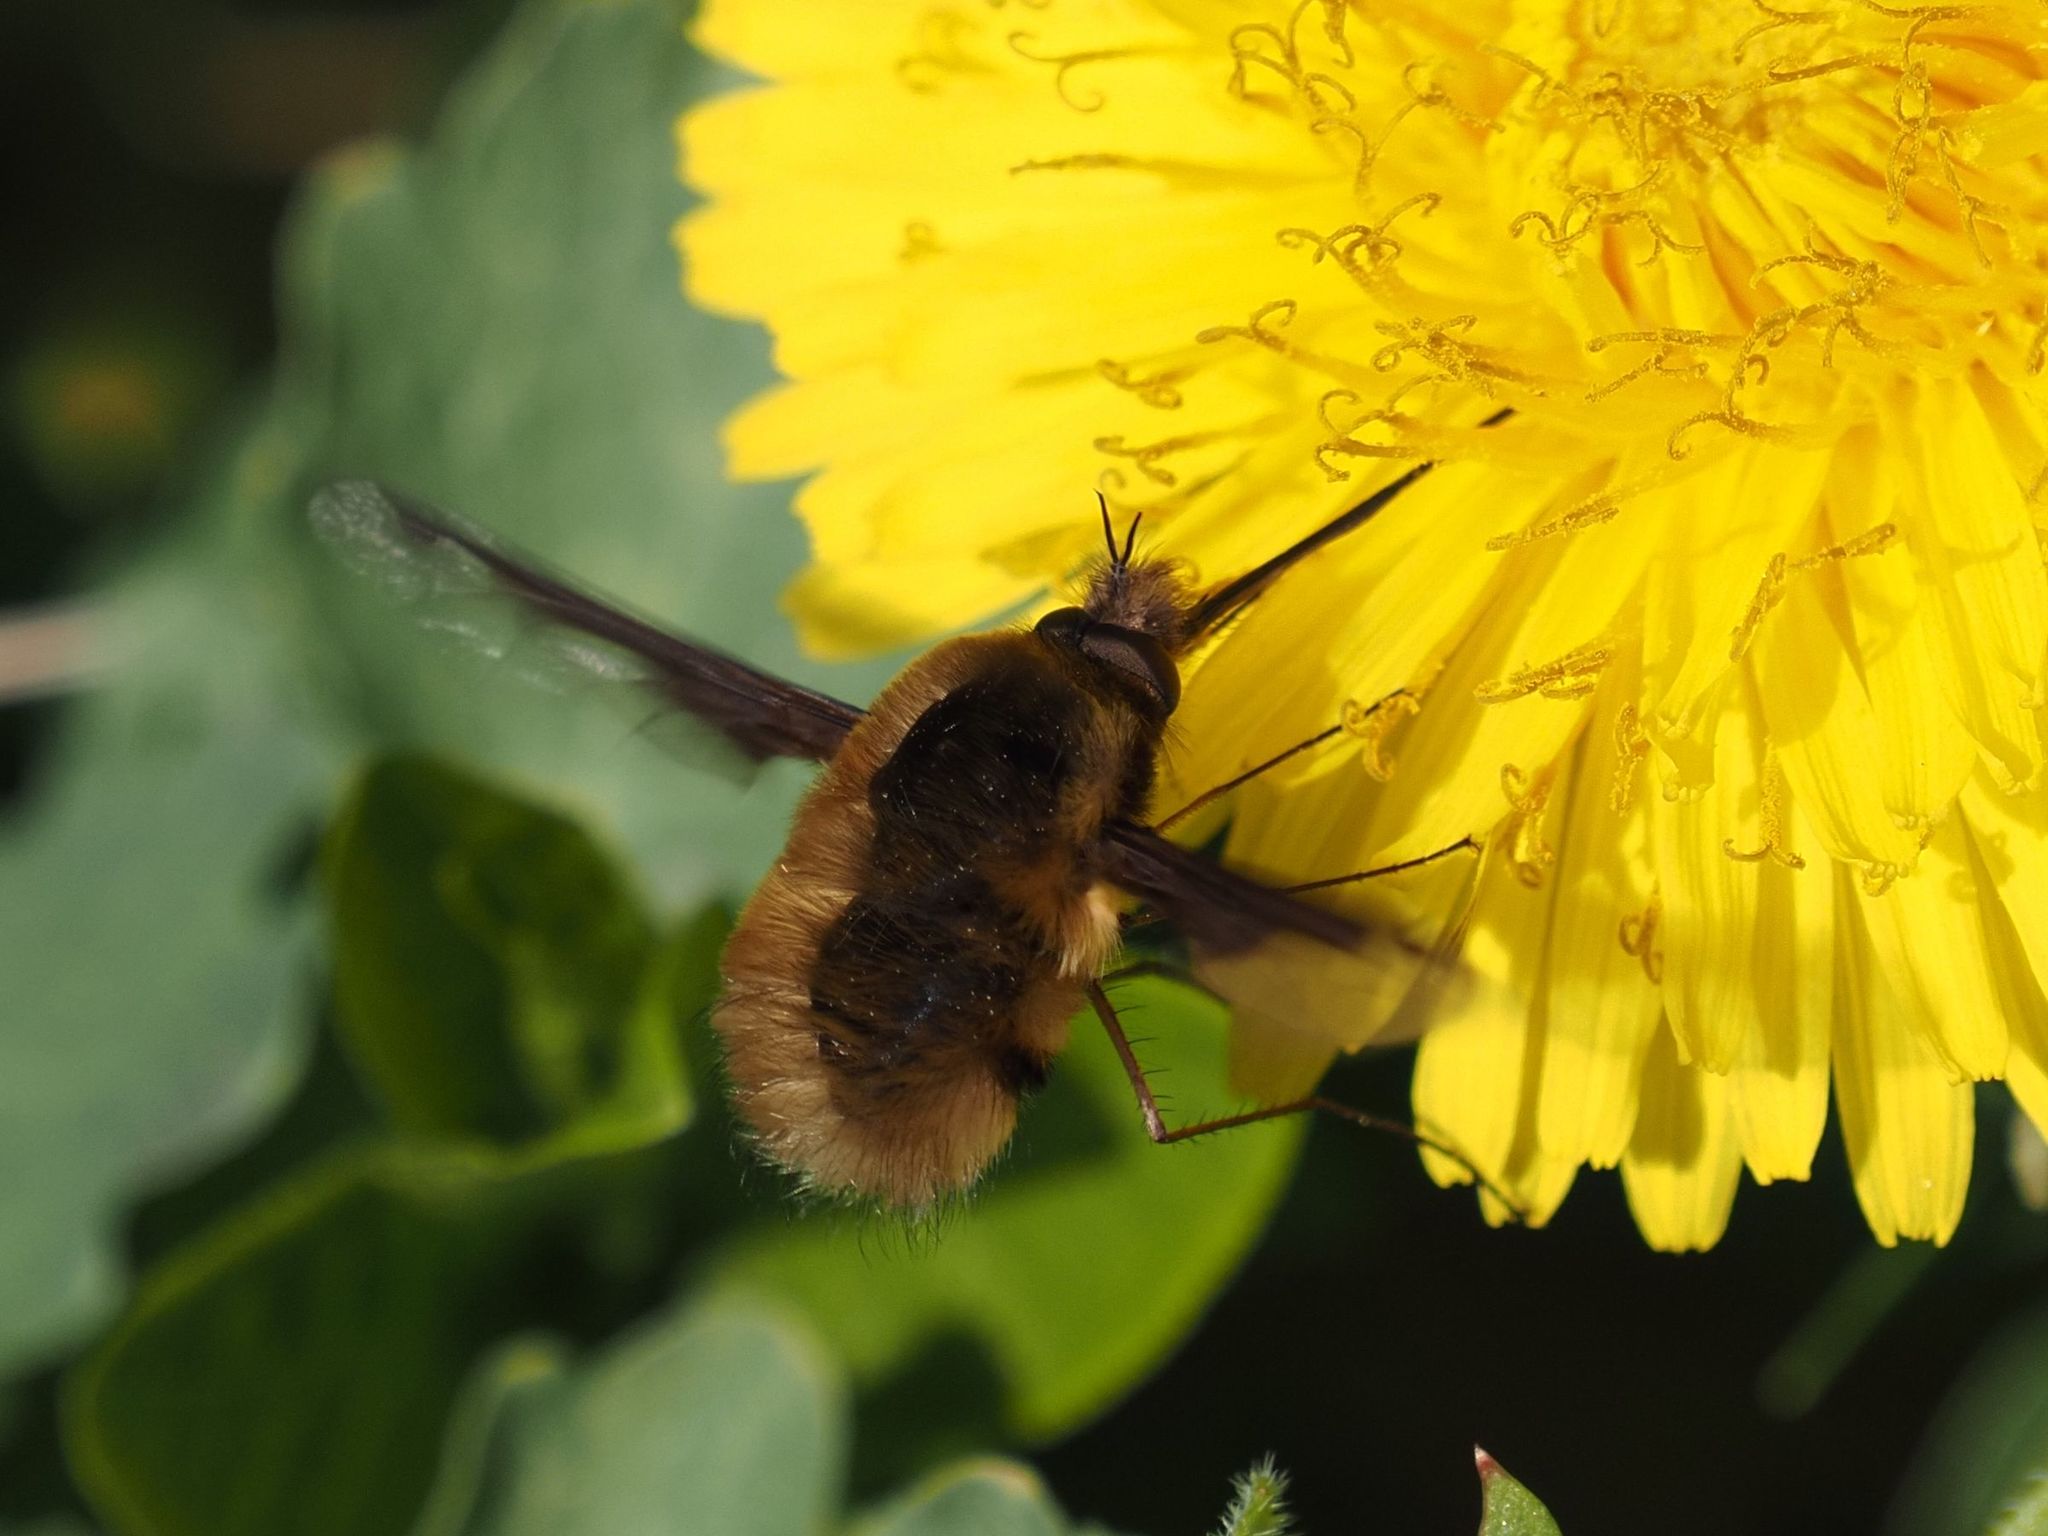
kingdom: Animalia
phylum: Arthropoda
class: Insecta
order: Diptera
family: Bombyliidae
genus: Bombylius
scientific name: Bombylius major
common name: Bee fly
